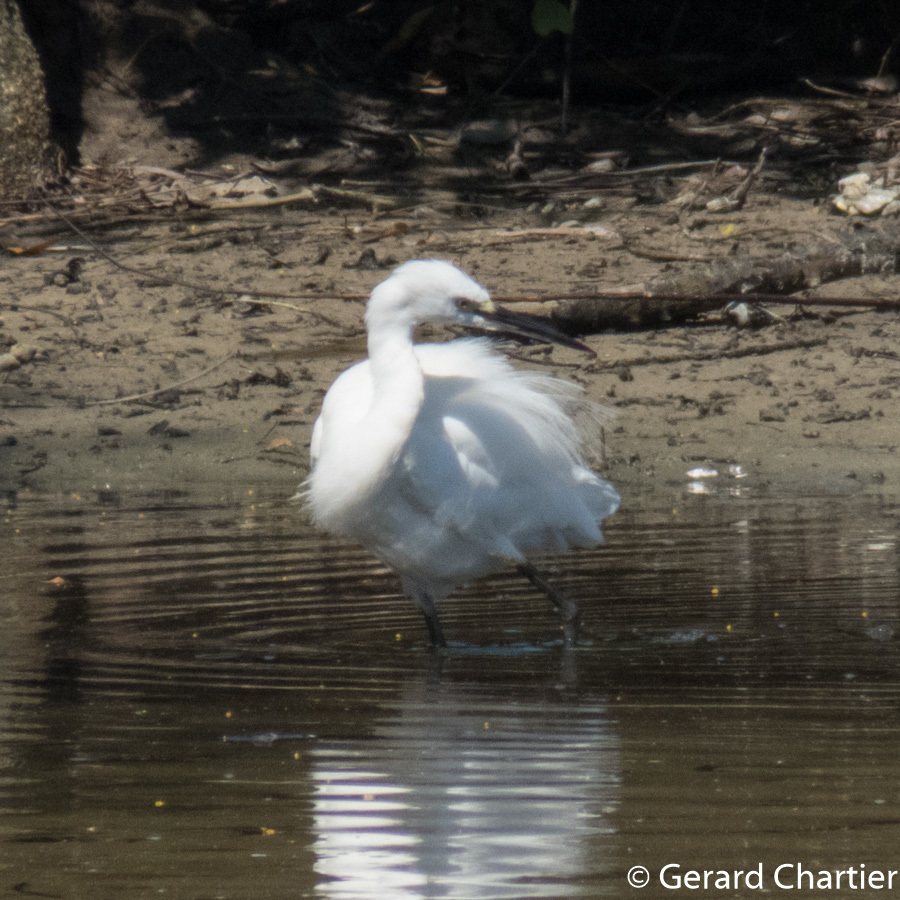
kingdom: Animalia
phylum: Chordata
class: Aves
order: Pelecaniformes
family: Ardeidae
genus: Egretta
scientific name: Egretta garzetta
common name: Little egret
